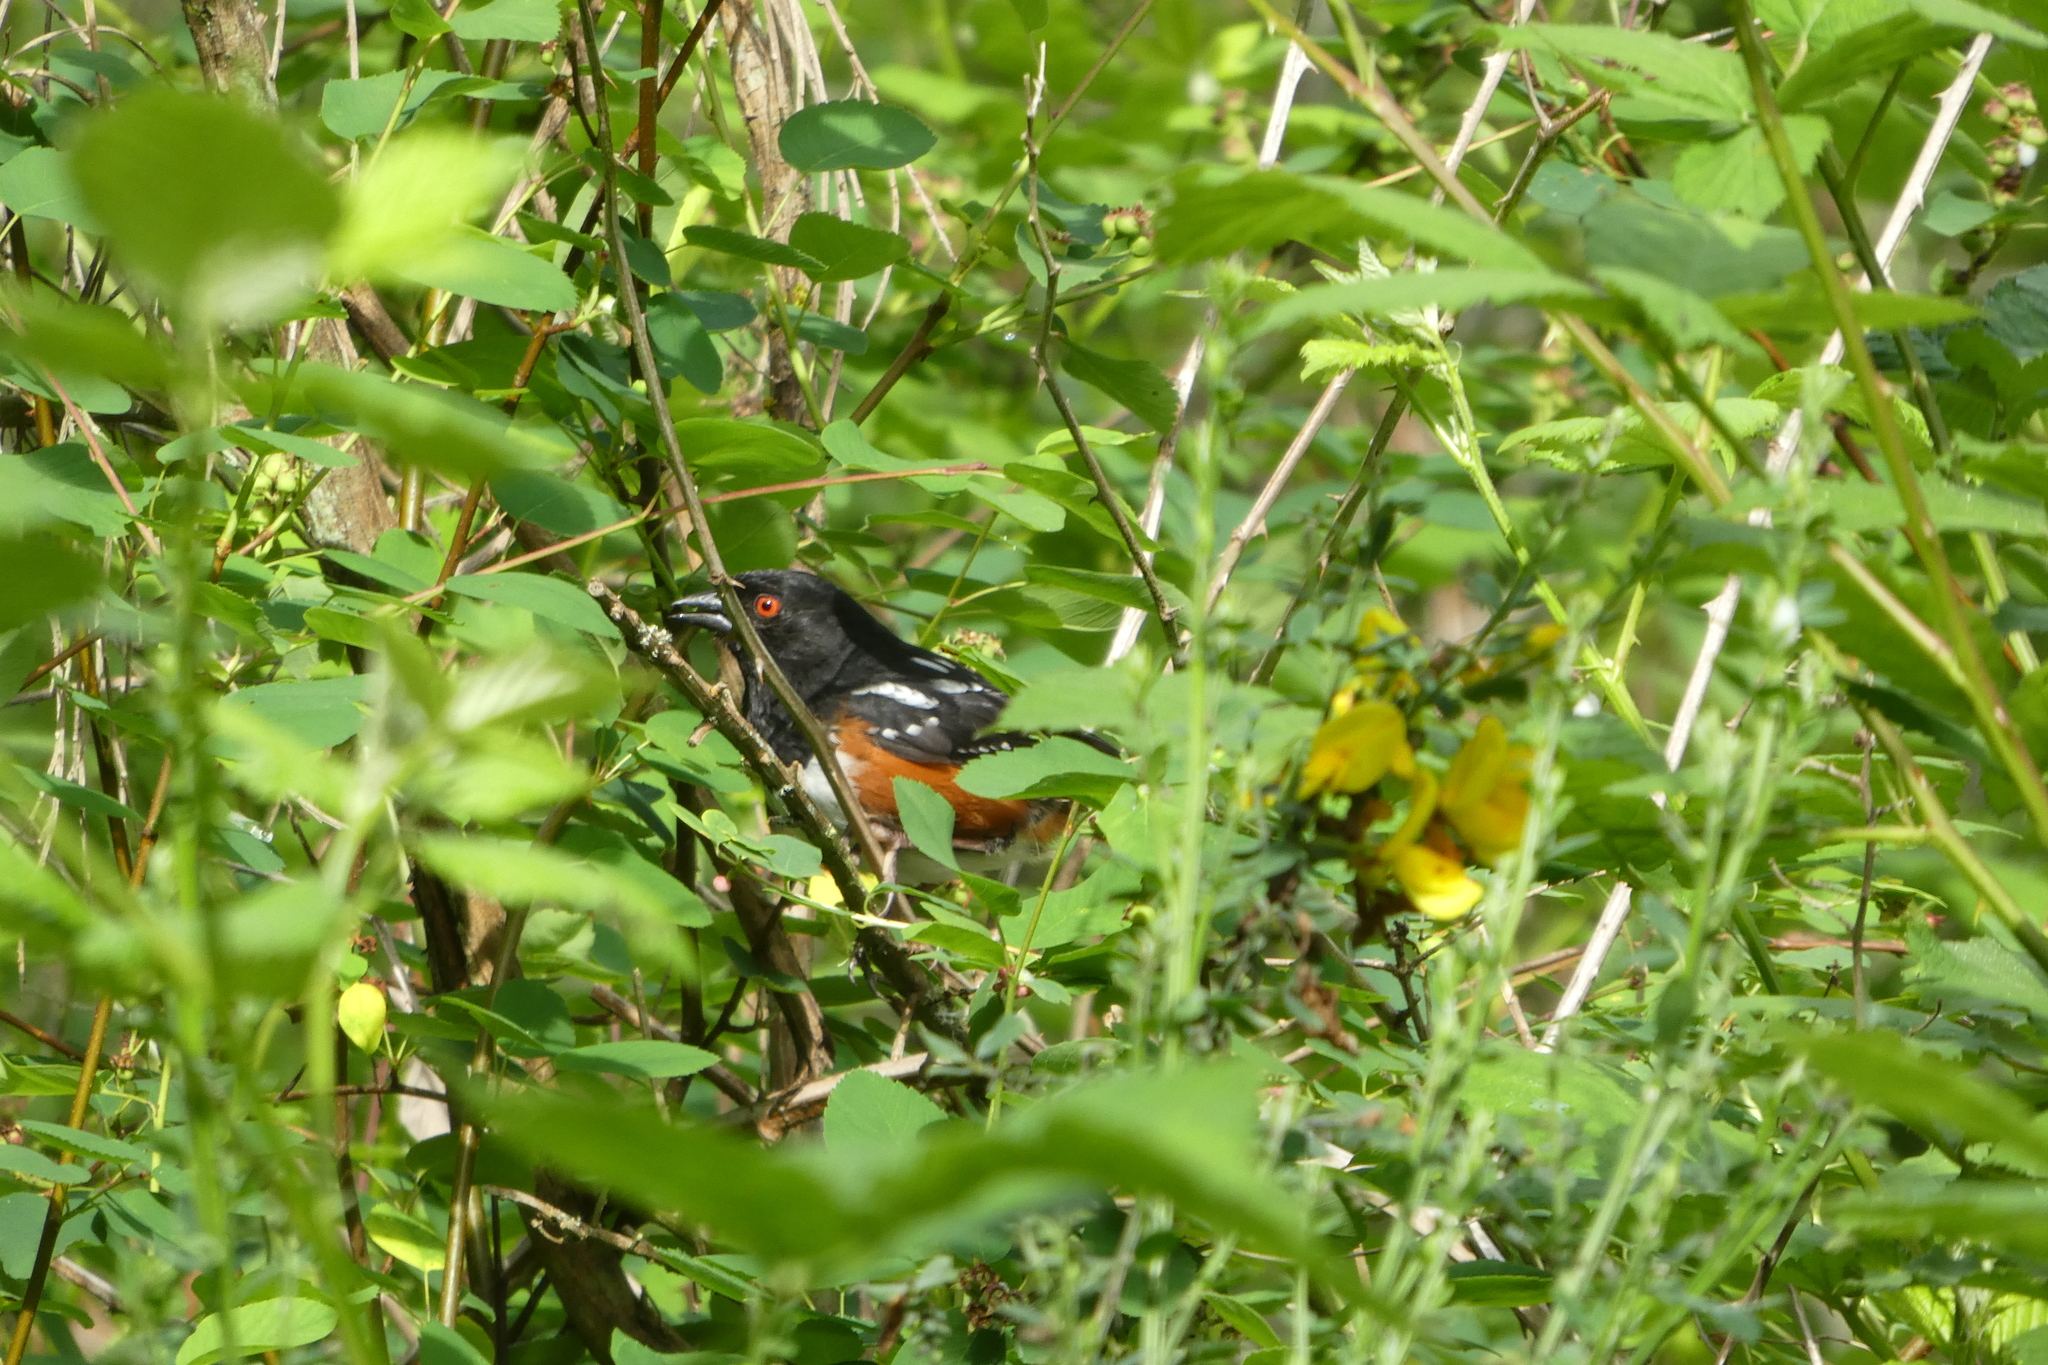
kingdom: Animalia
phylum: Chordata
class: Aves
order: Passeriformes
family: Passerellidae
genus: Pipilo
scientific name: Pipilo maculatus
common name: Spotted towhee
